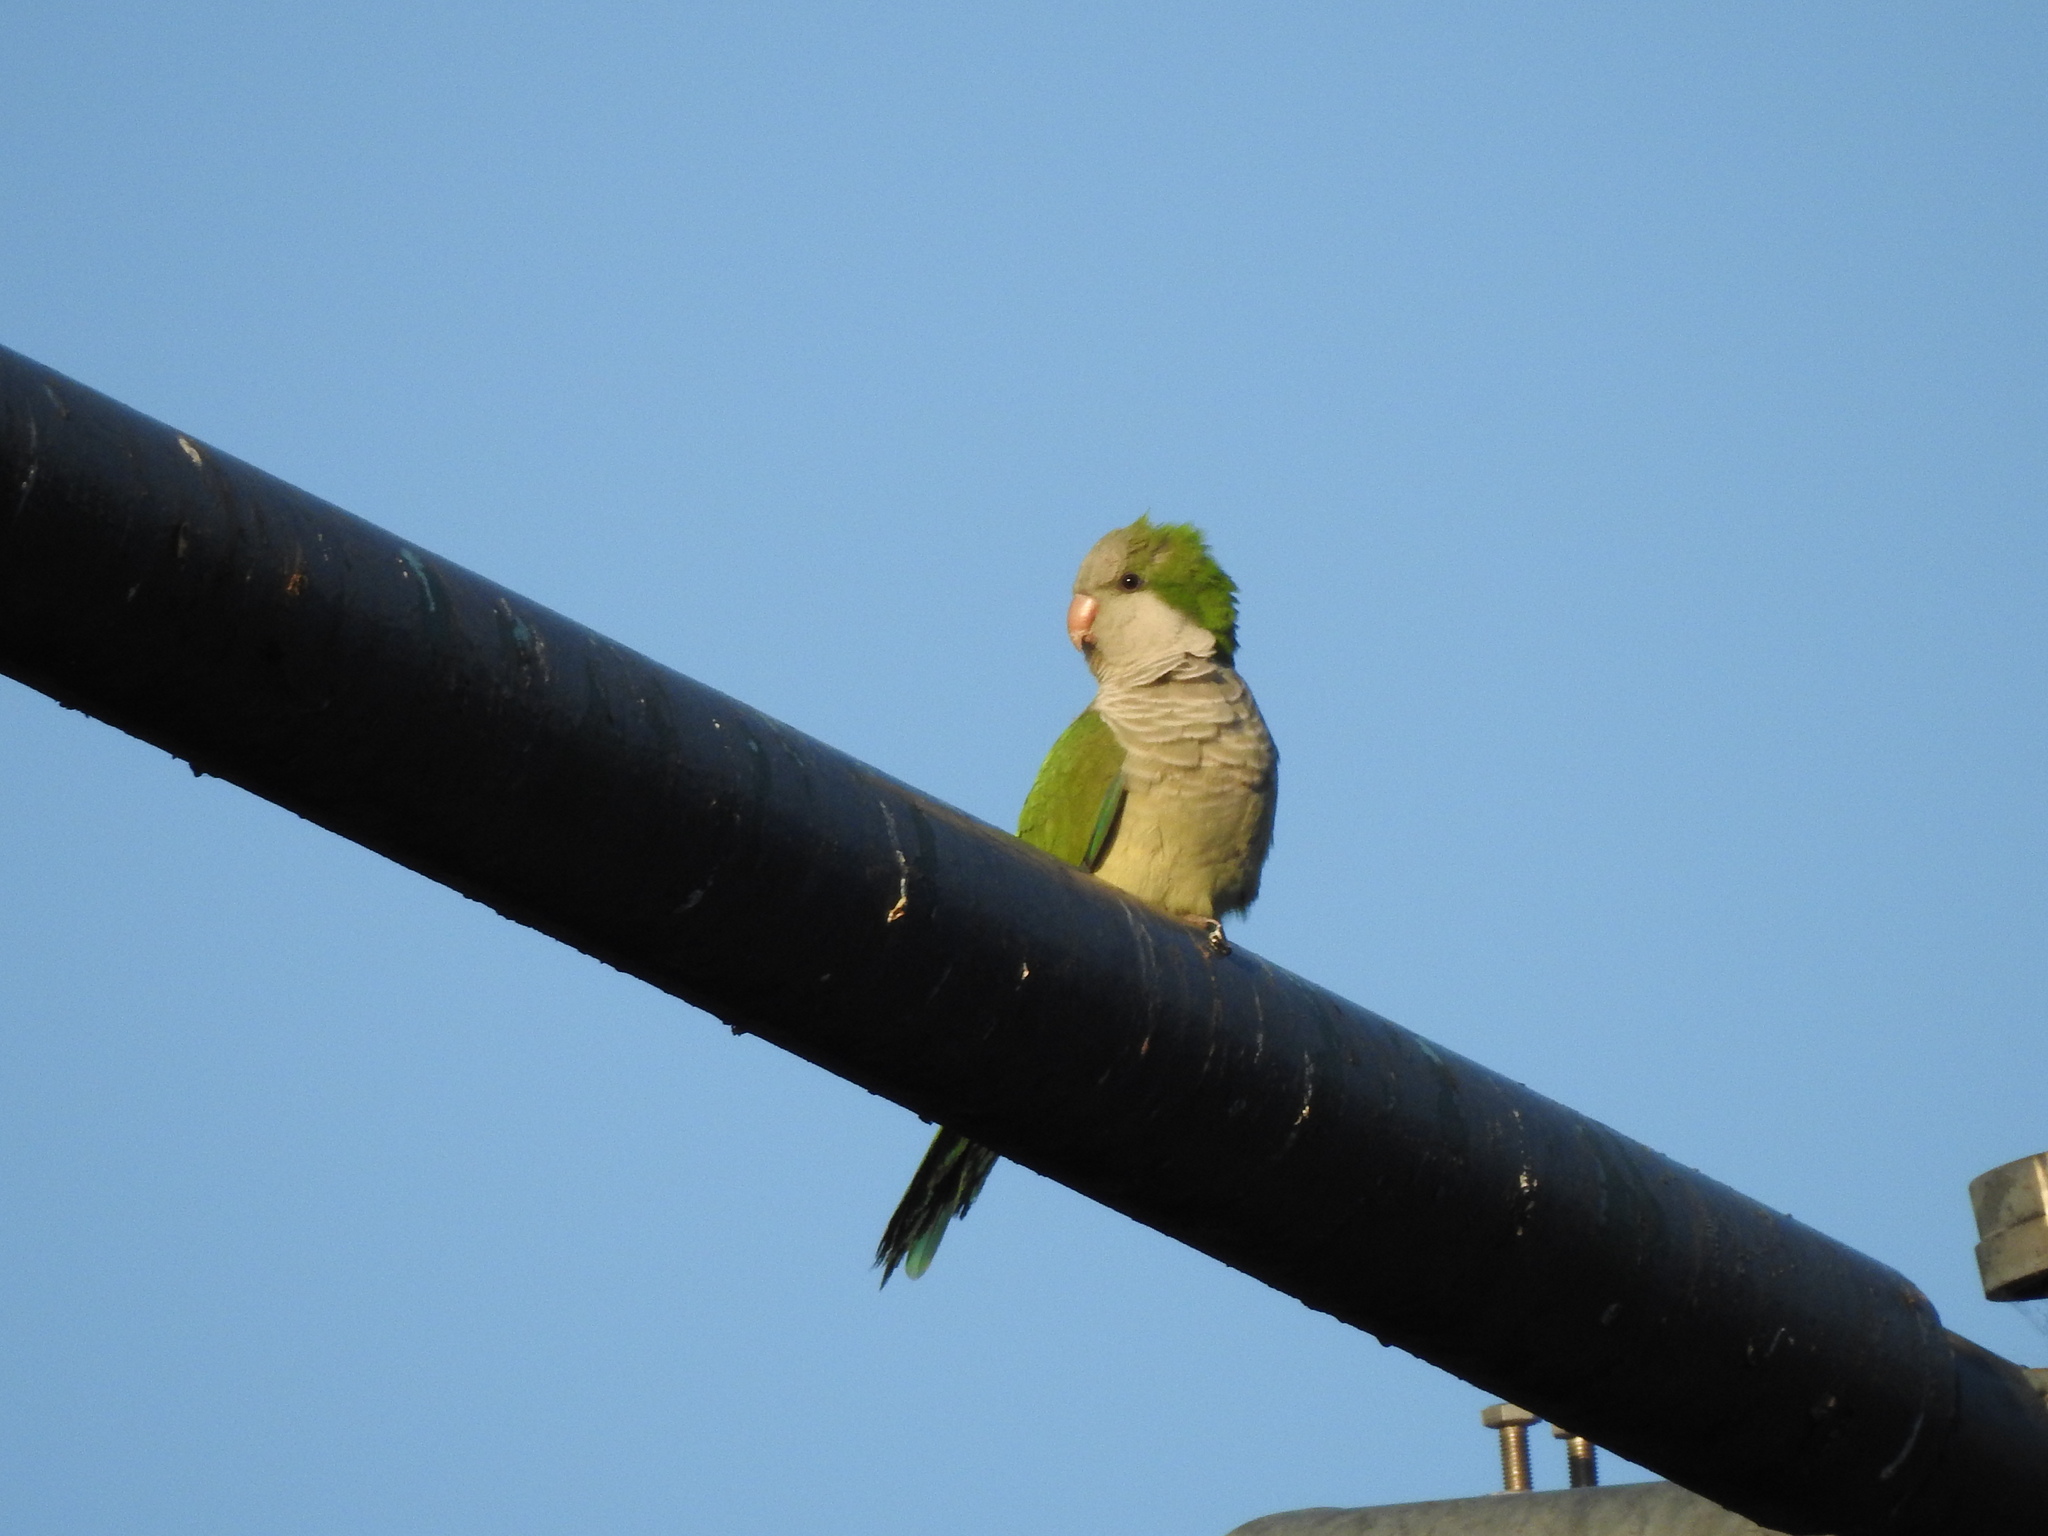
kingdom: Animalia
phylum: Chordata
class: Aves
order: Psittaciformes
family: Psittacidae
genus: Myiopsitta
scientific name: Myiopsitta monachus
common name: Monk parakeet
